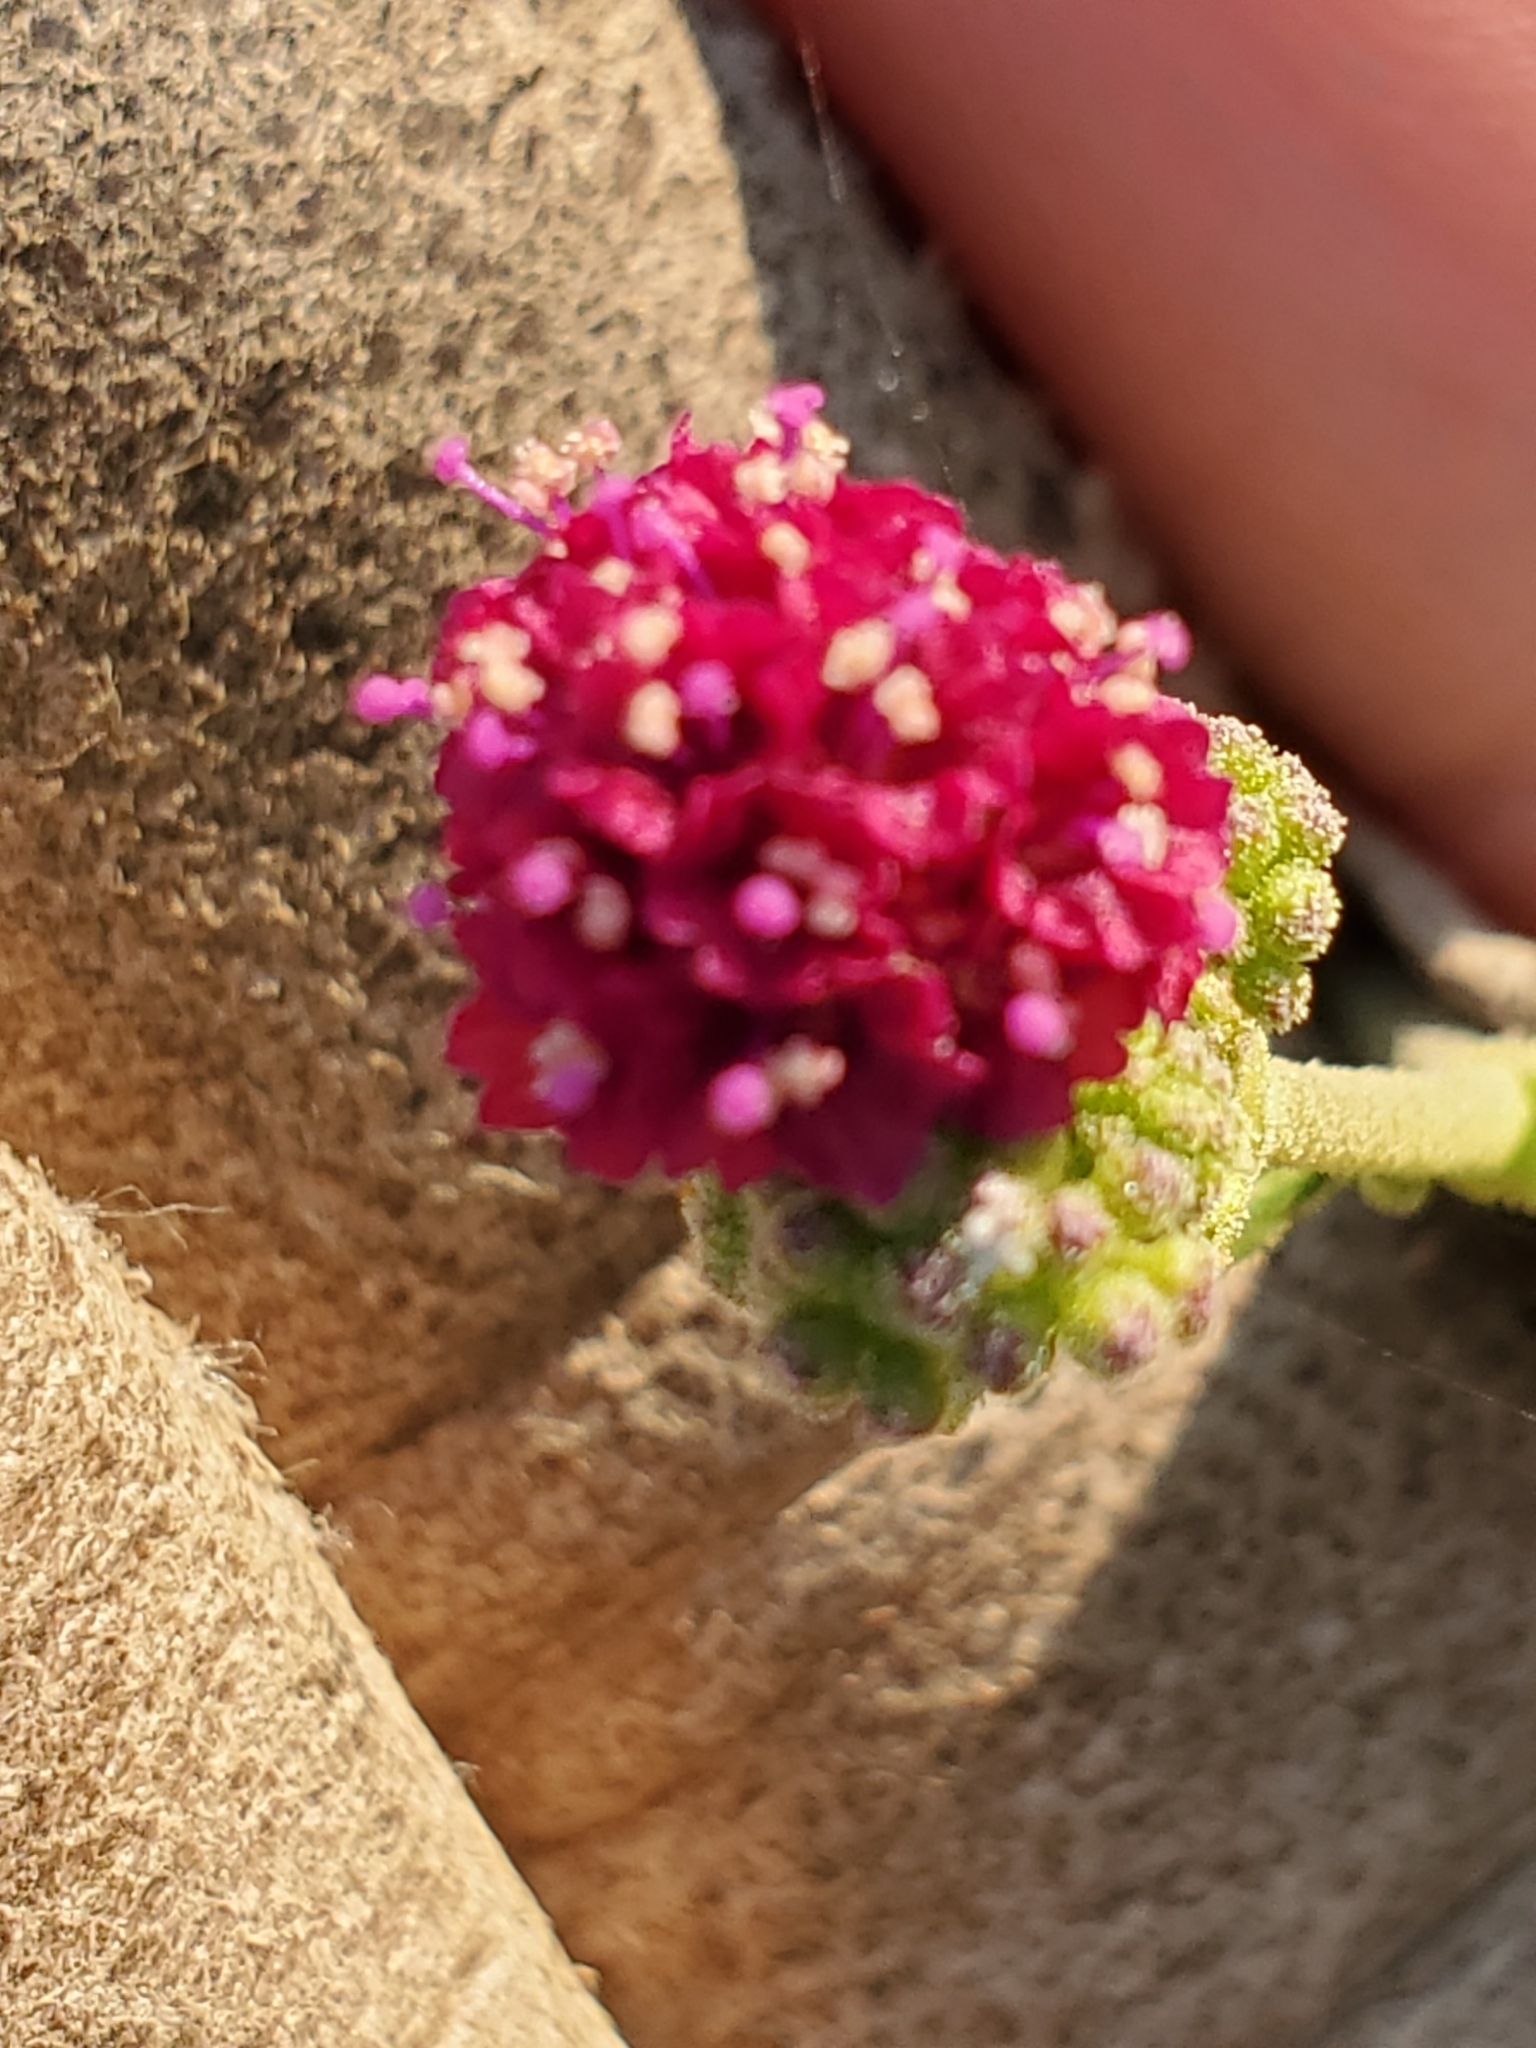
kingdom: Plantae
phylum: Tracheophyta
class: Magnoliopsida
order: Caryophyllales
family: Nyctaginaceae
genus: Boerhavia
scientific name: Boerhavia coccinea
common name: Scarlet spiderling
